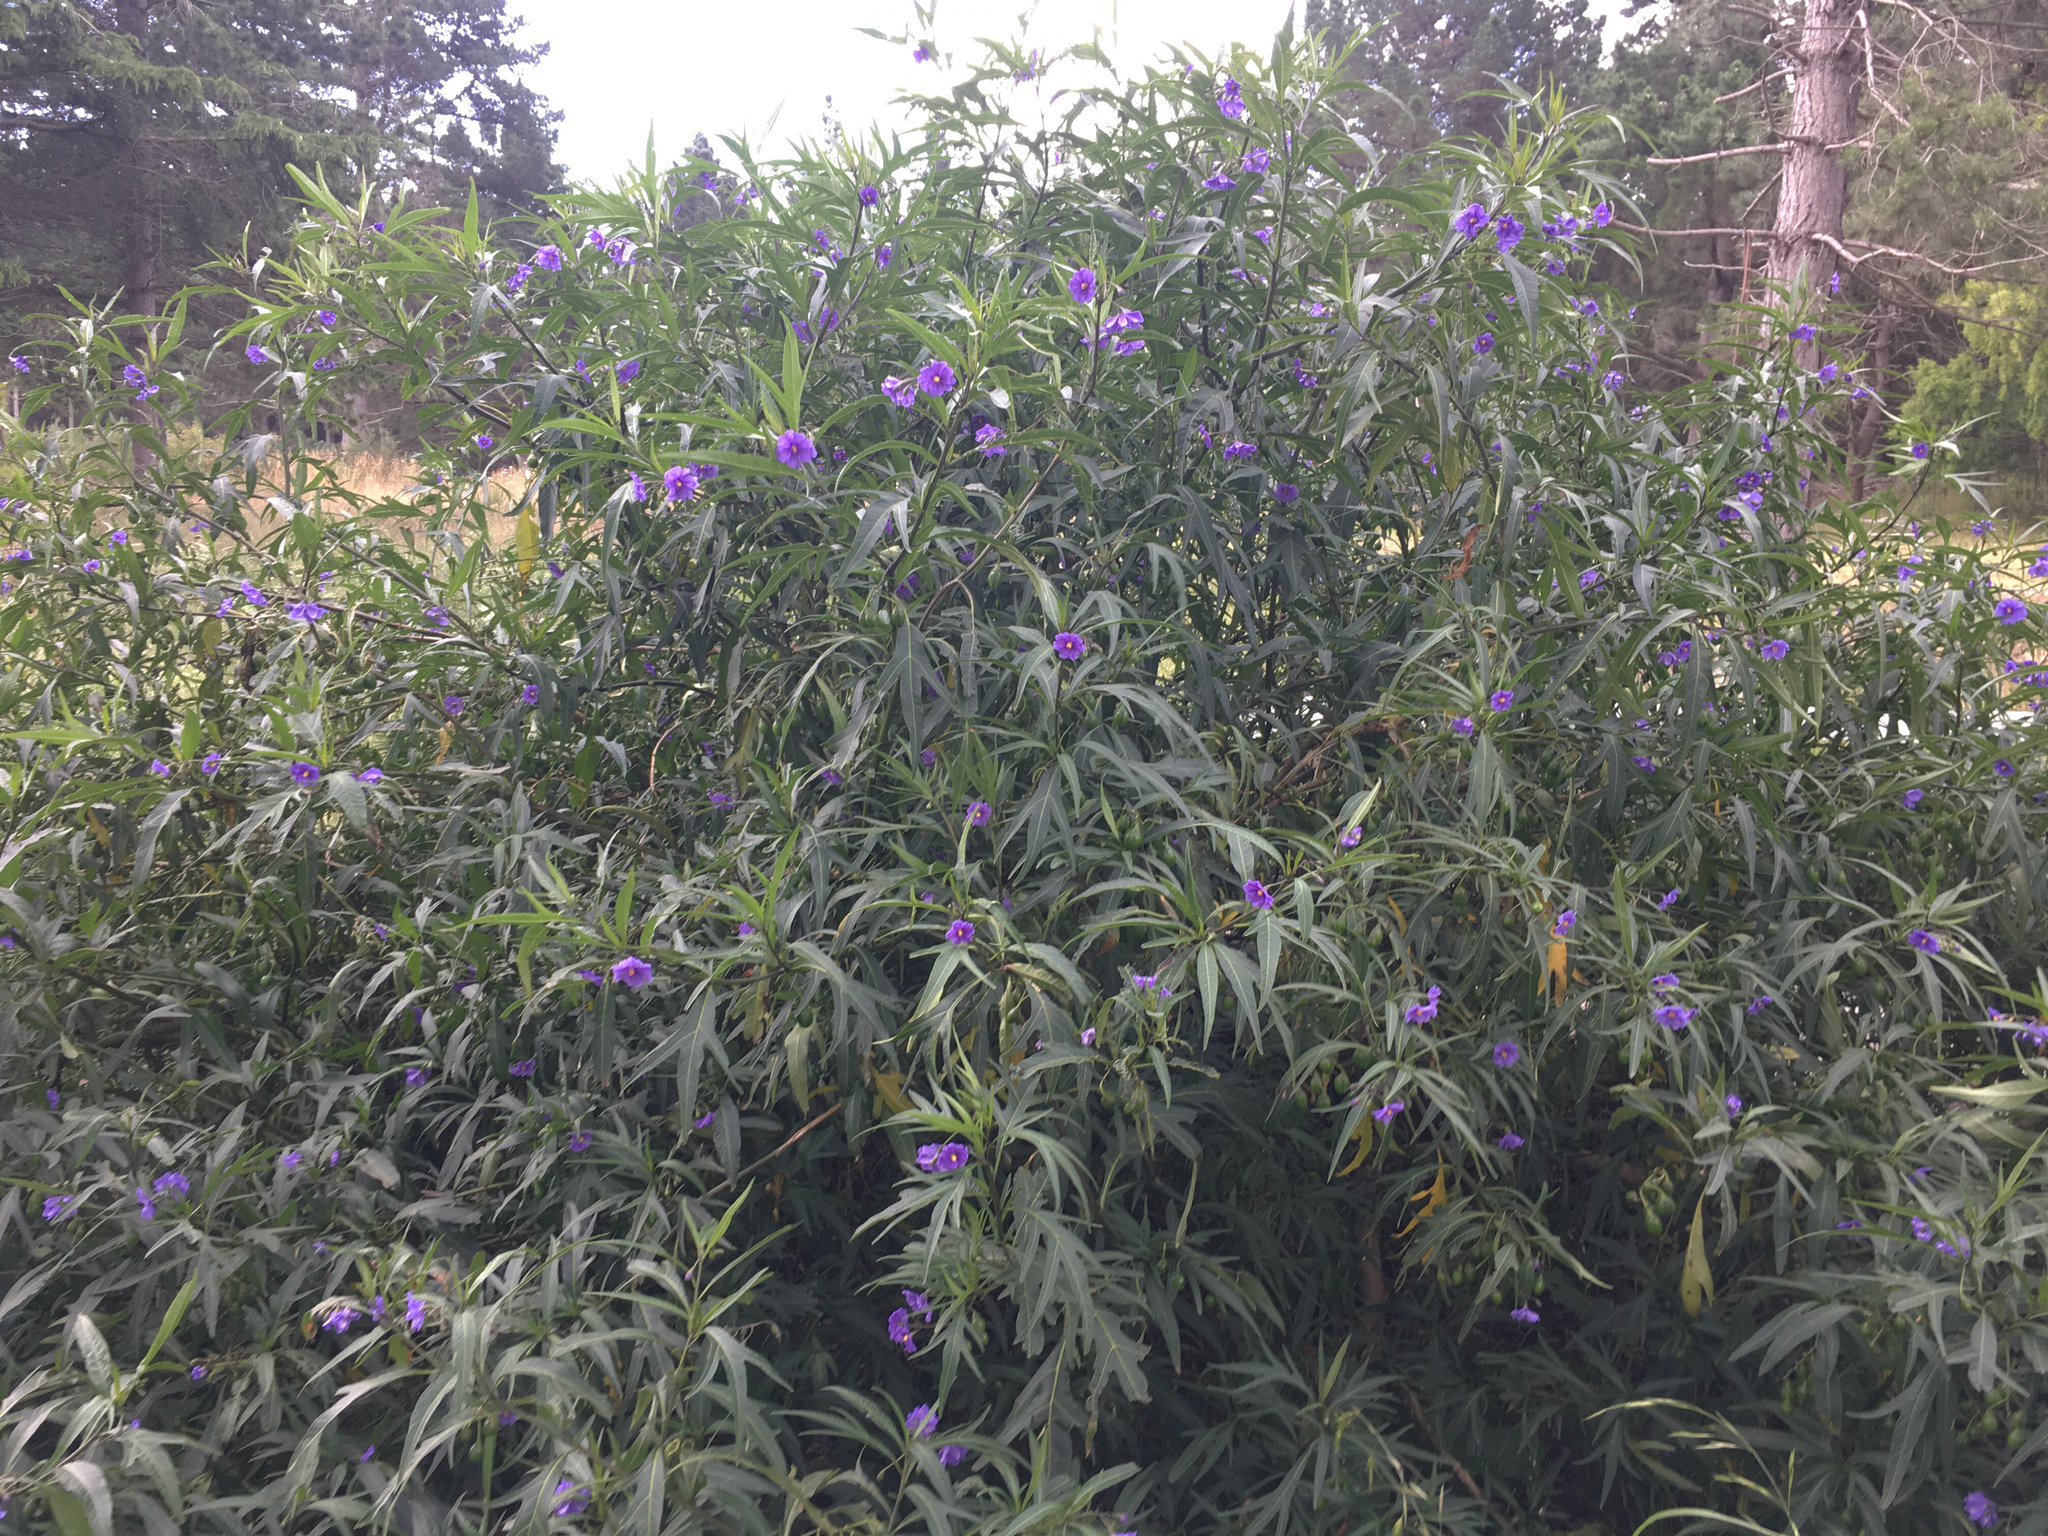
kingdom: Plantae
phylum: Tracheophyta
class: Magnoliopsida
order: Solanales
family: Solanaceae
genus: Solanum
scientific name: Solanum laciniatum
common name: Kangaroo-apple
